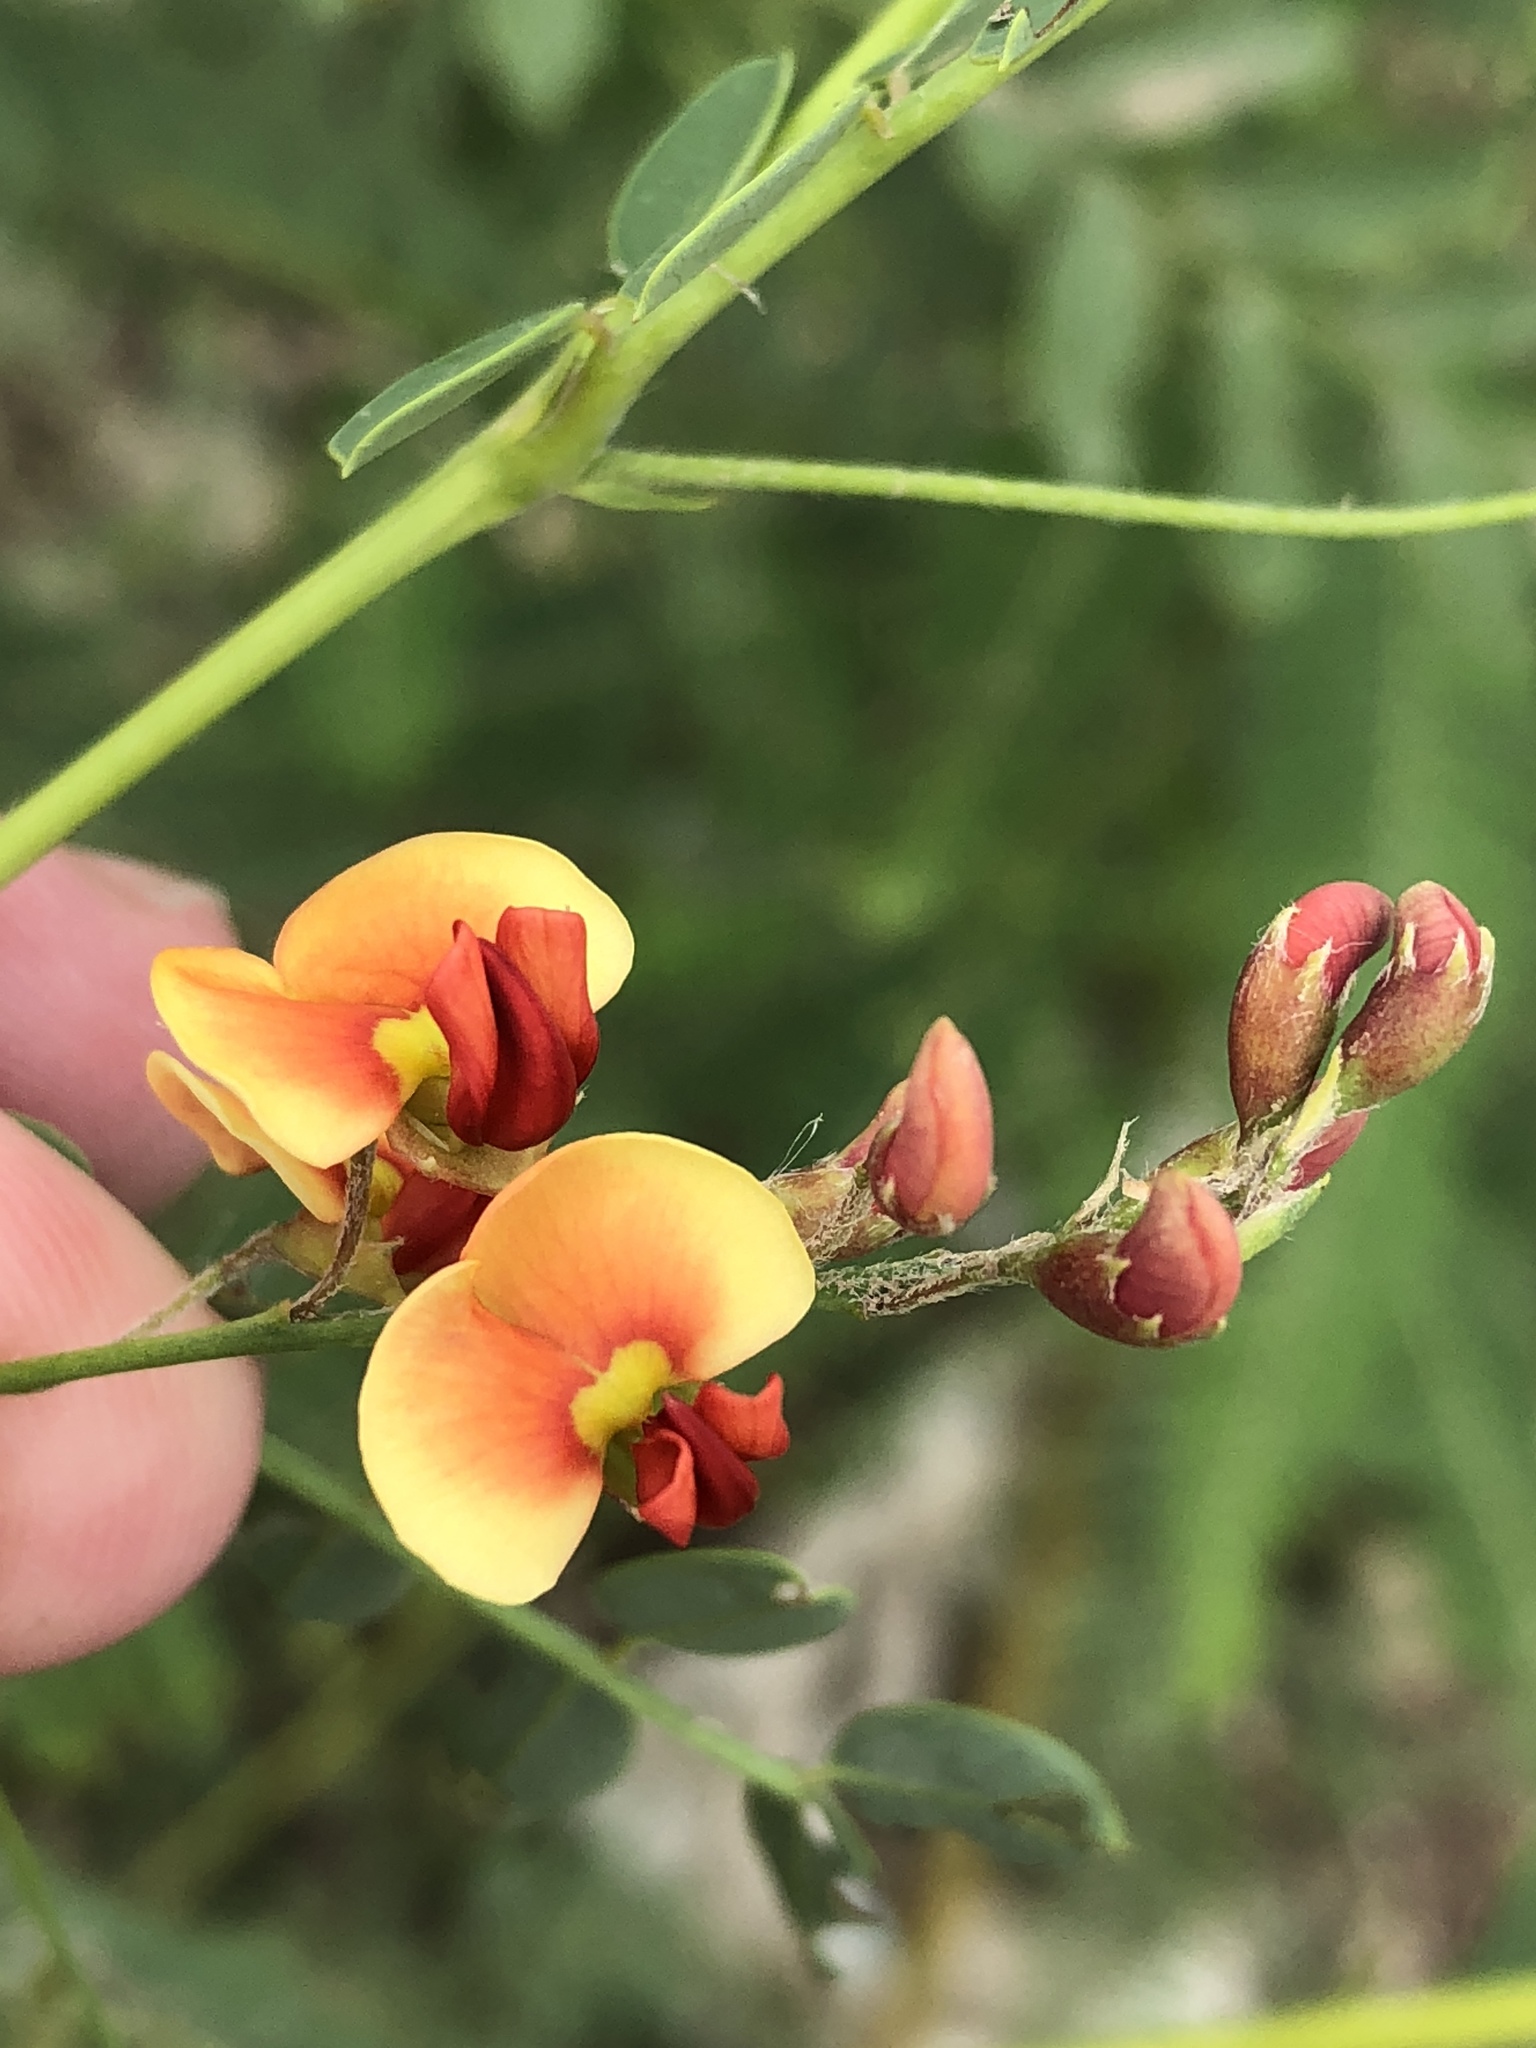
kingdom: Plantae
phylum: Tracheophyta
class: Magnoliopsida
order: Fabales
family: Fabaceae
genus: Sesbania
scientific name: Sesbania vesicaria
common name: Bagpod
